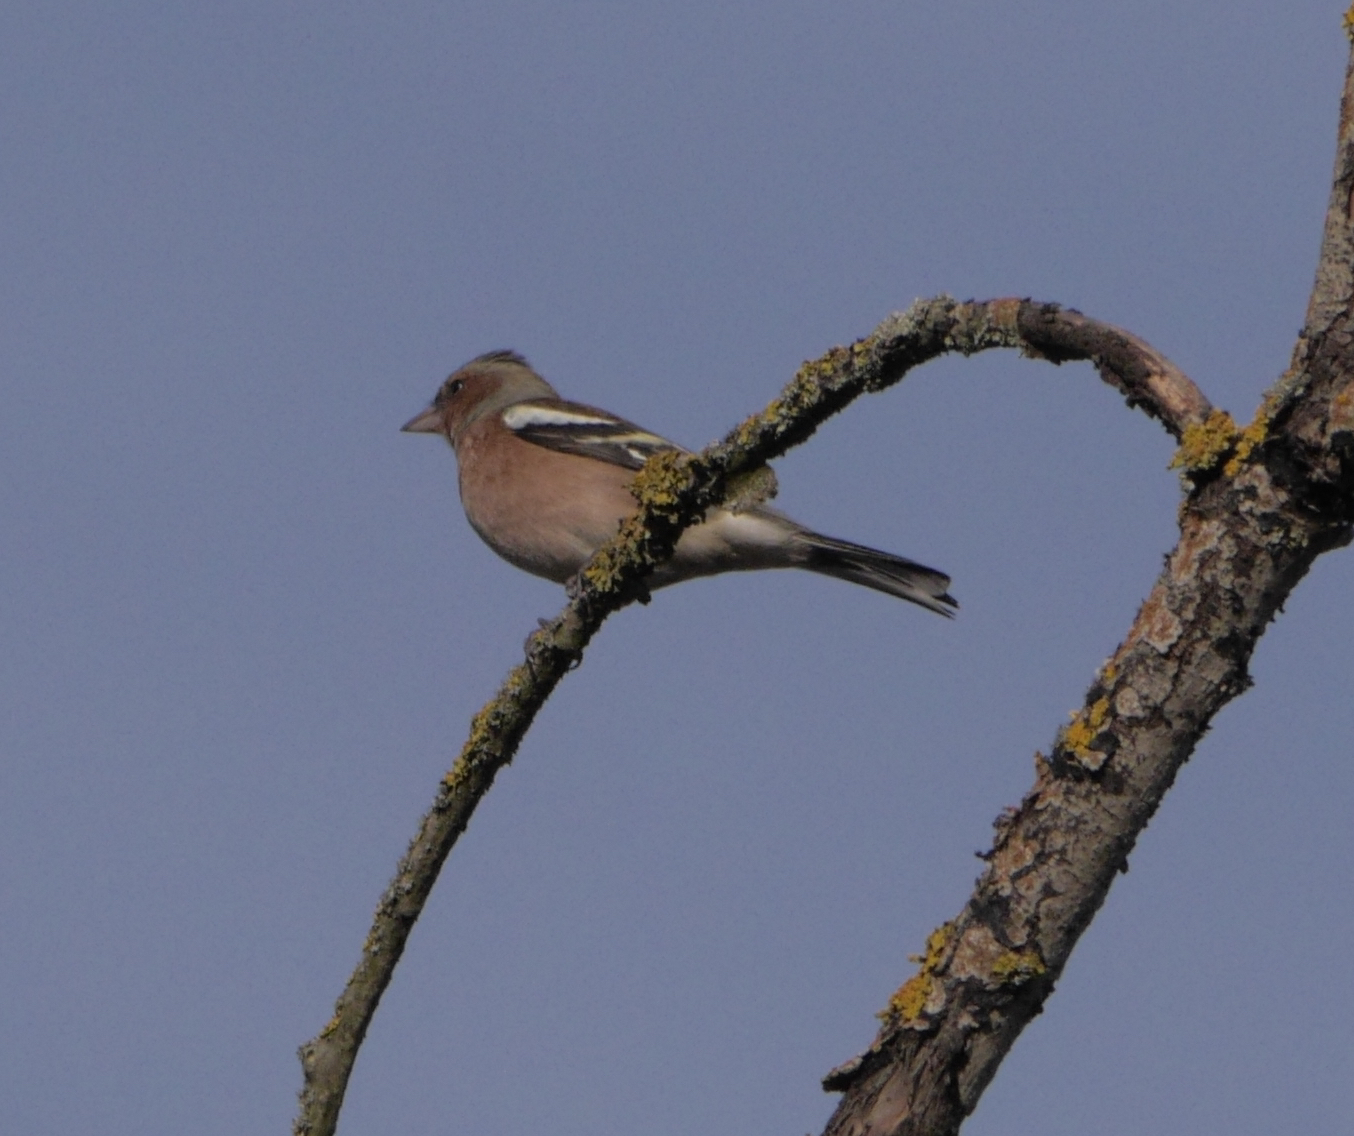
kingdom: Animalia
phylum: Chordata
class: Aves
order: Passeriformes
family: Fringillidae
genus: Fringilla
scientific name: Fringilla coelebs
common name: Common chaffinch
